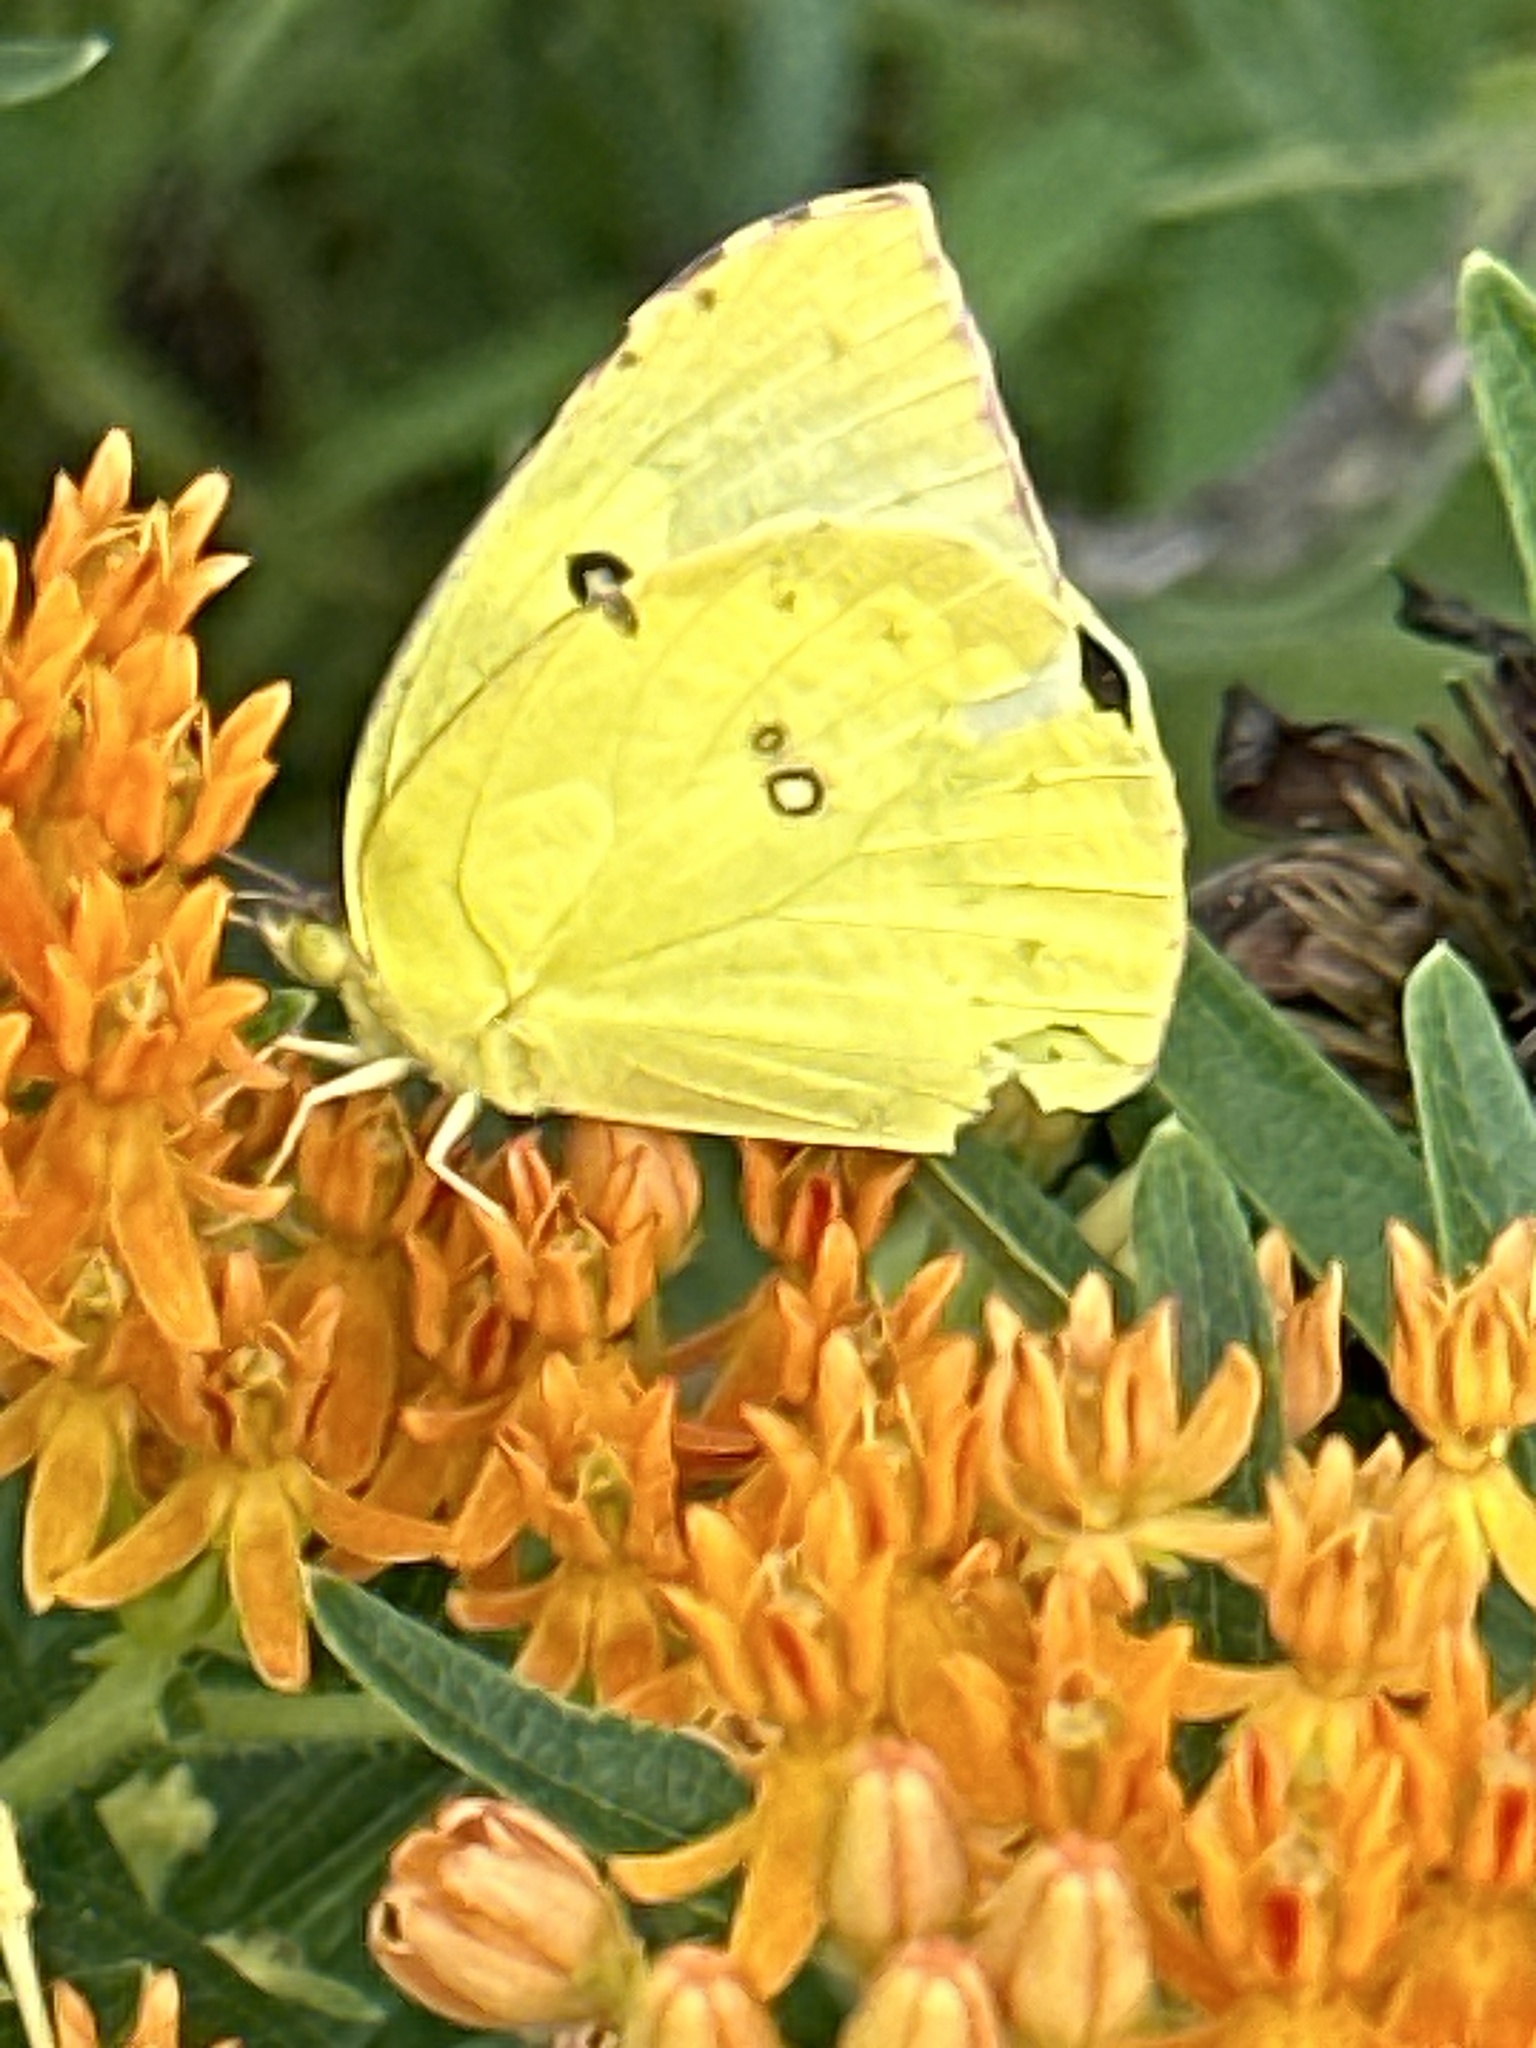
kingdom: Animalia
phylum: Arthropoda
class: Insecta
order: Lepidoptera
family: Pieridae
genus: Zerene
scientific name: Zerene cesonia
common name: Southern dogface
